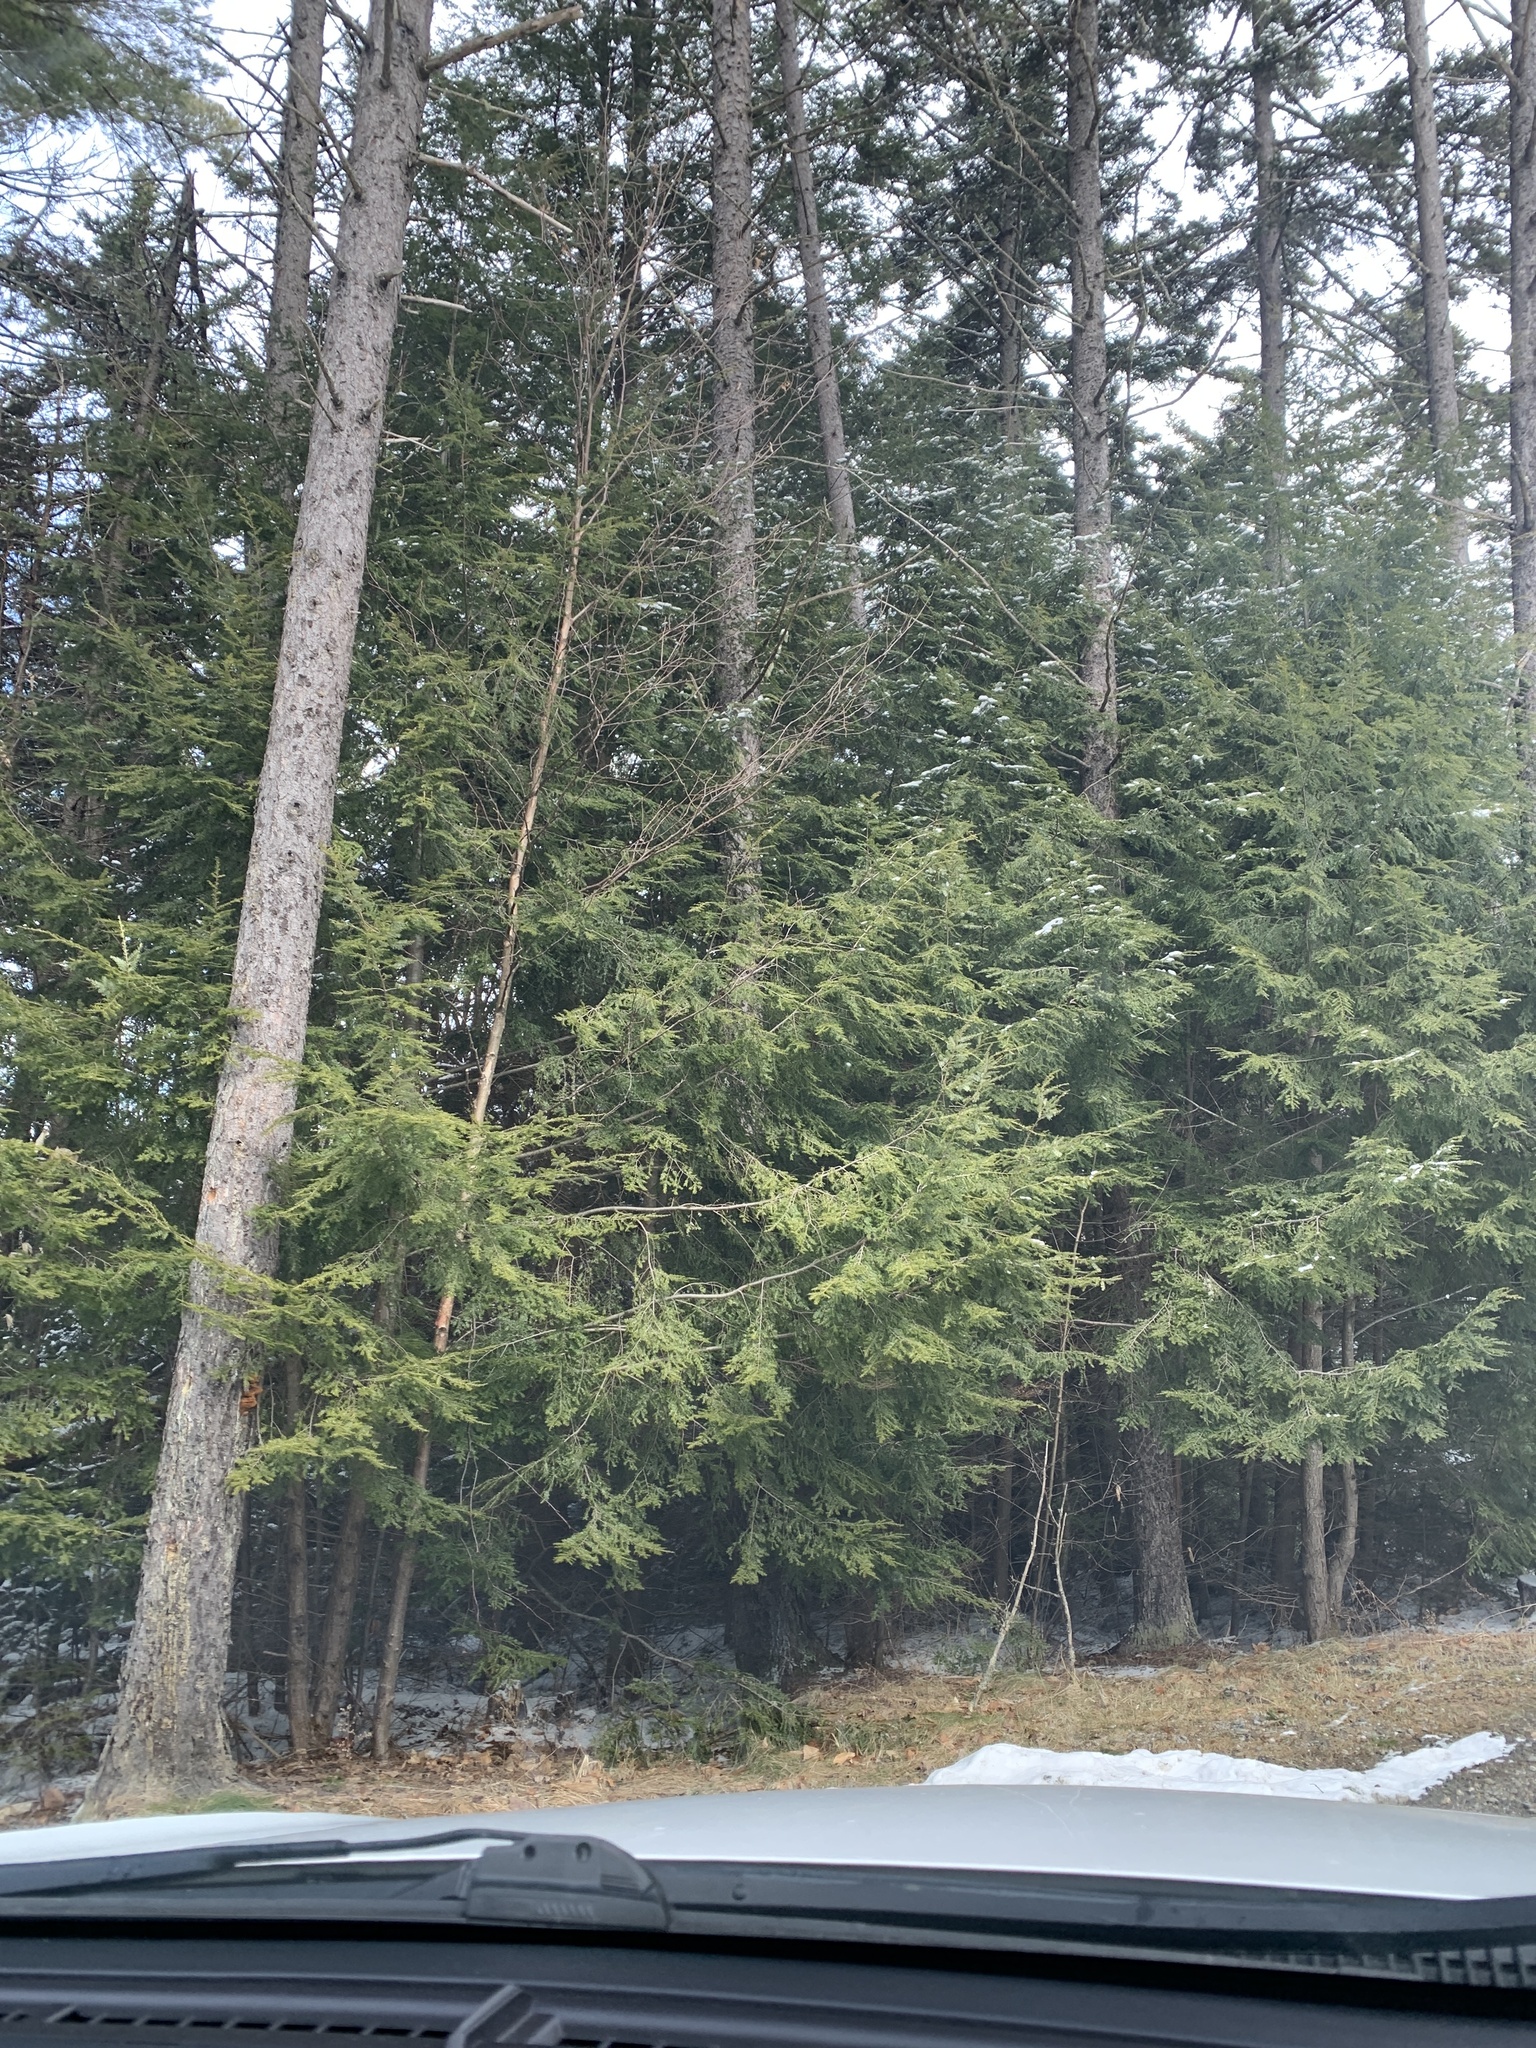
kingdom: Plantae
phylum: Tracheophyta
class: Pinopsida
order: Pinales
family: Pinaceae
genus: Tsuga
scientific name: Tsuga canadensis
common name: Eastern hemlock
